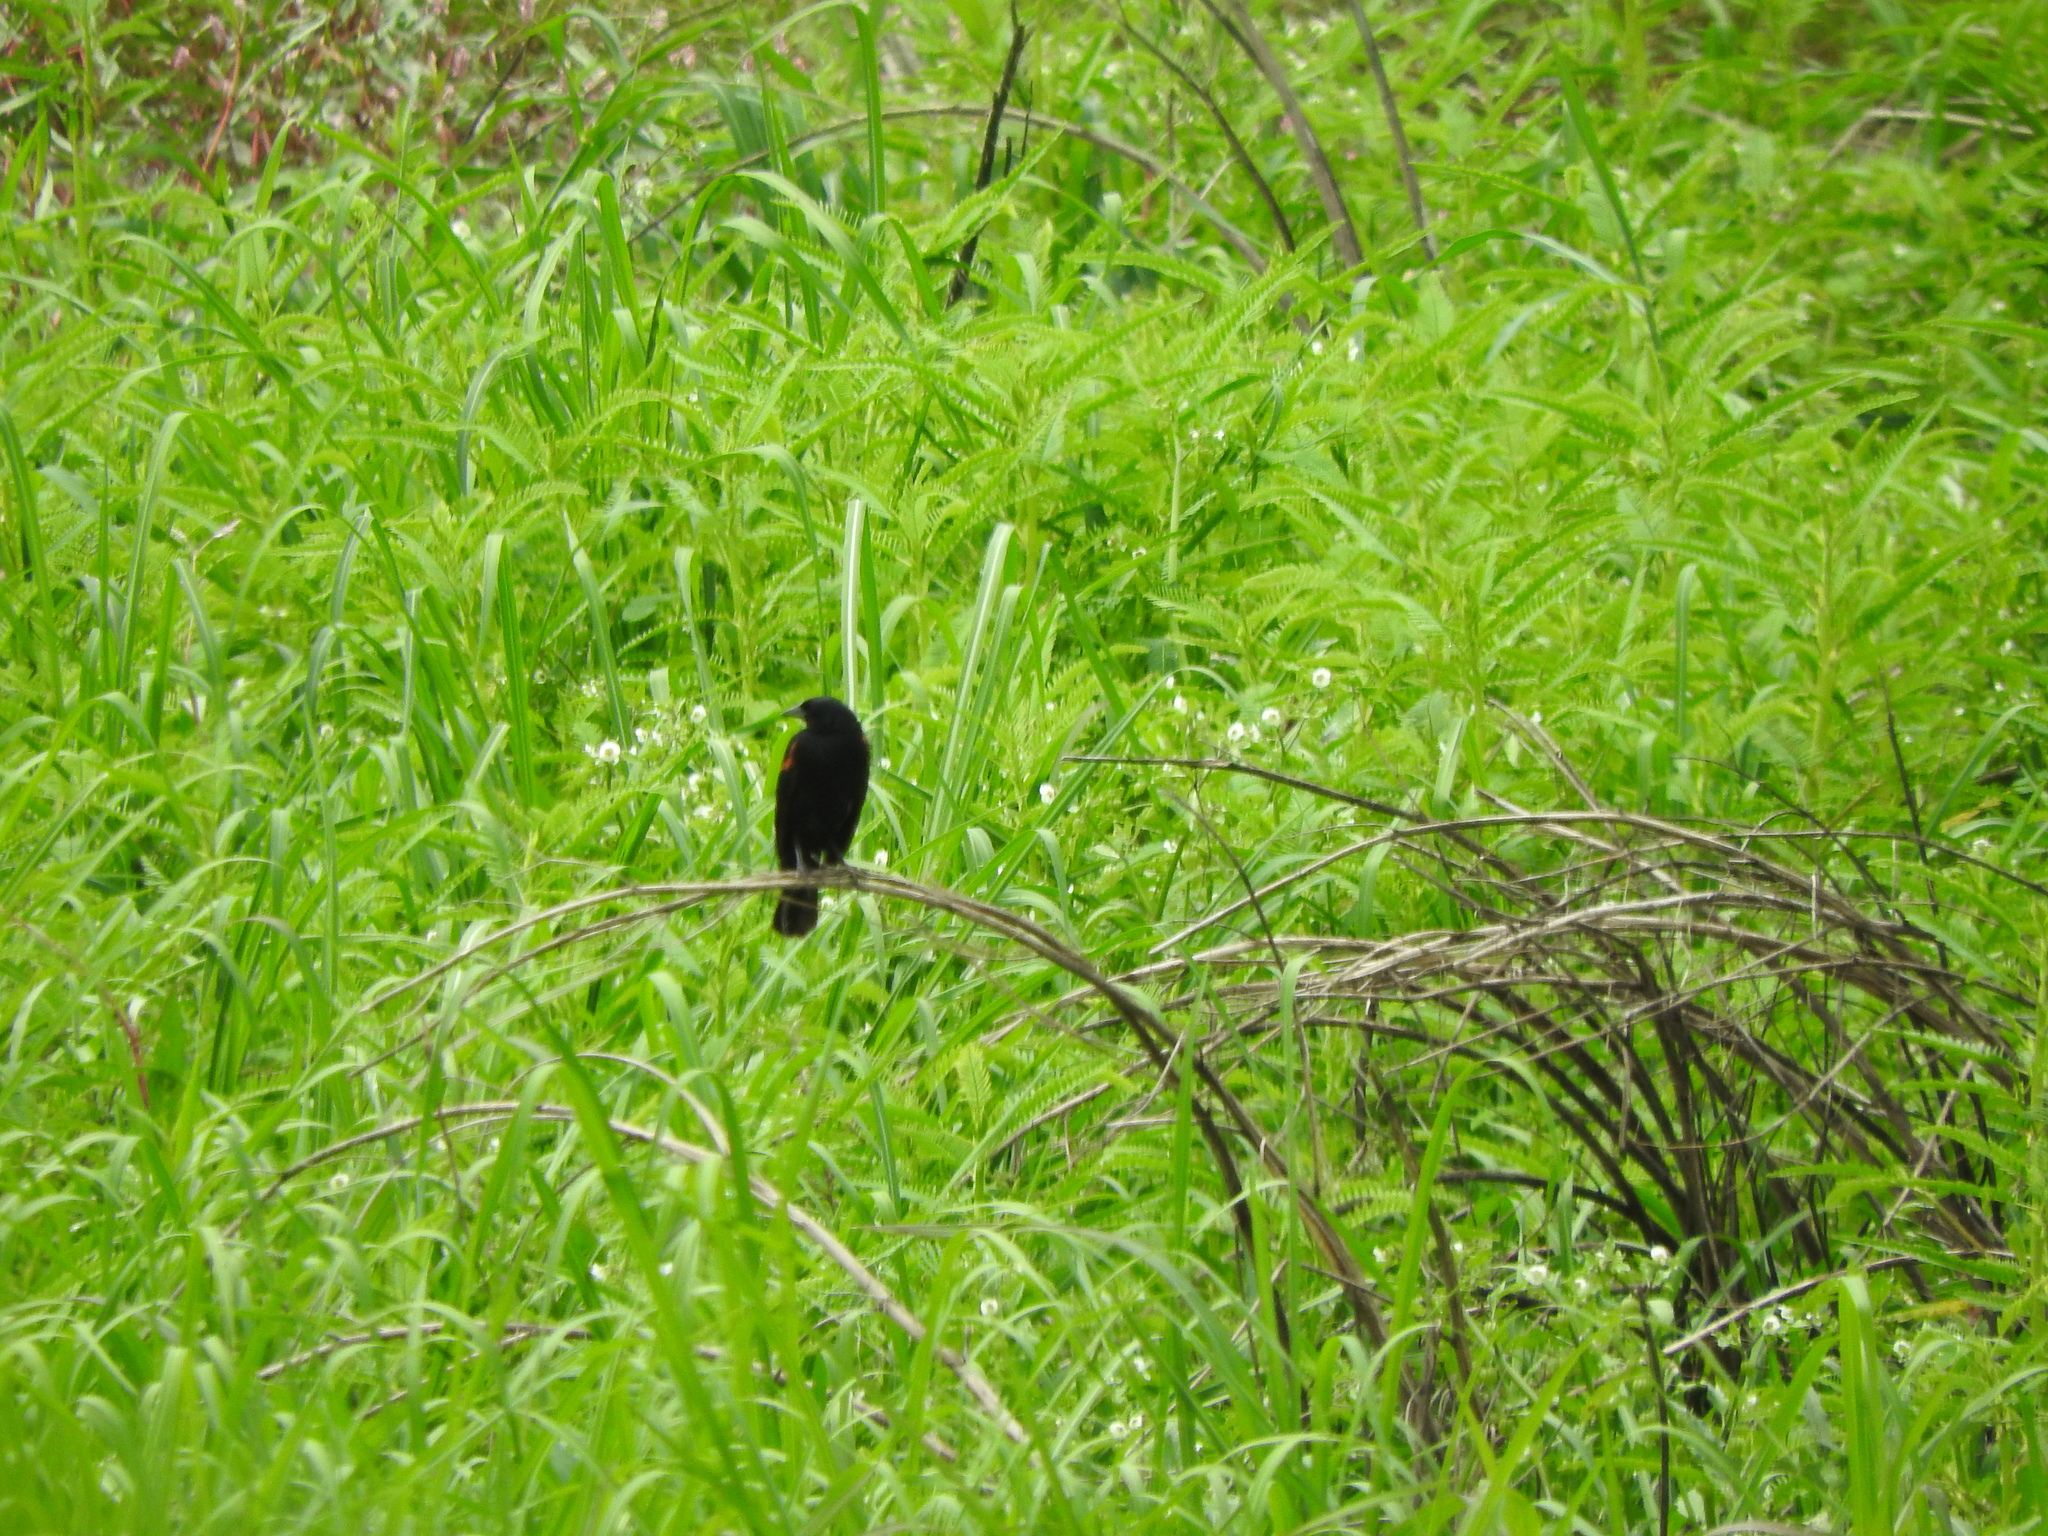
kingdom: Animalia
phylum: Chordata
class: Aves
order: Passeriformes
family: Icteridae
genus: Agelaius
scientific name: Agelaius phoeniceus
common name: Red-winged blackbird
